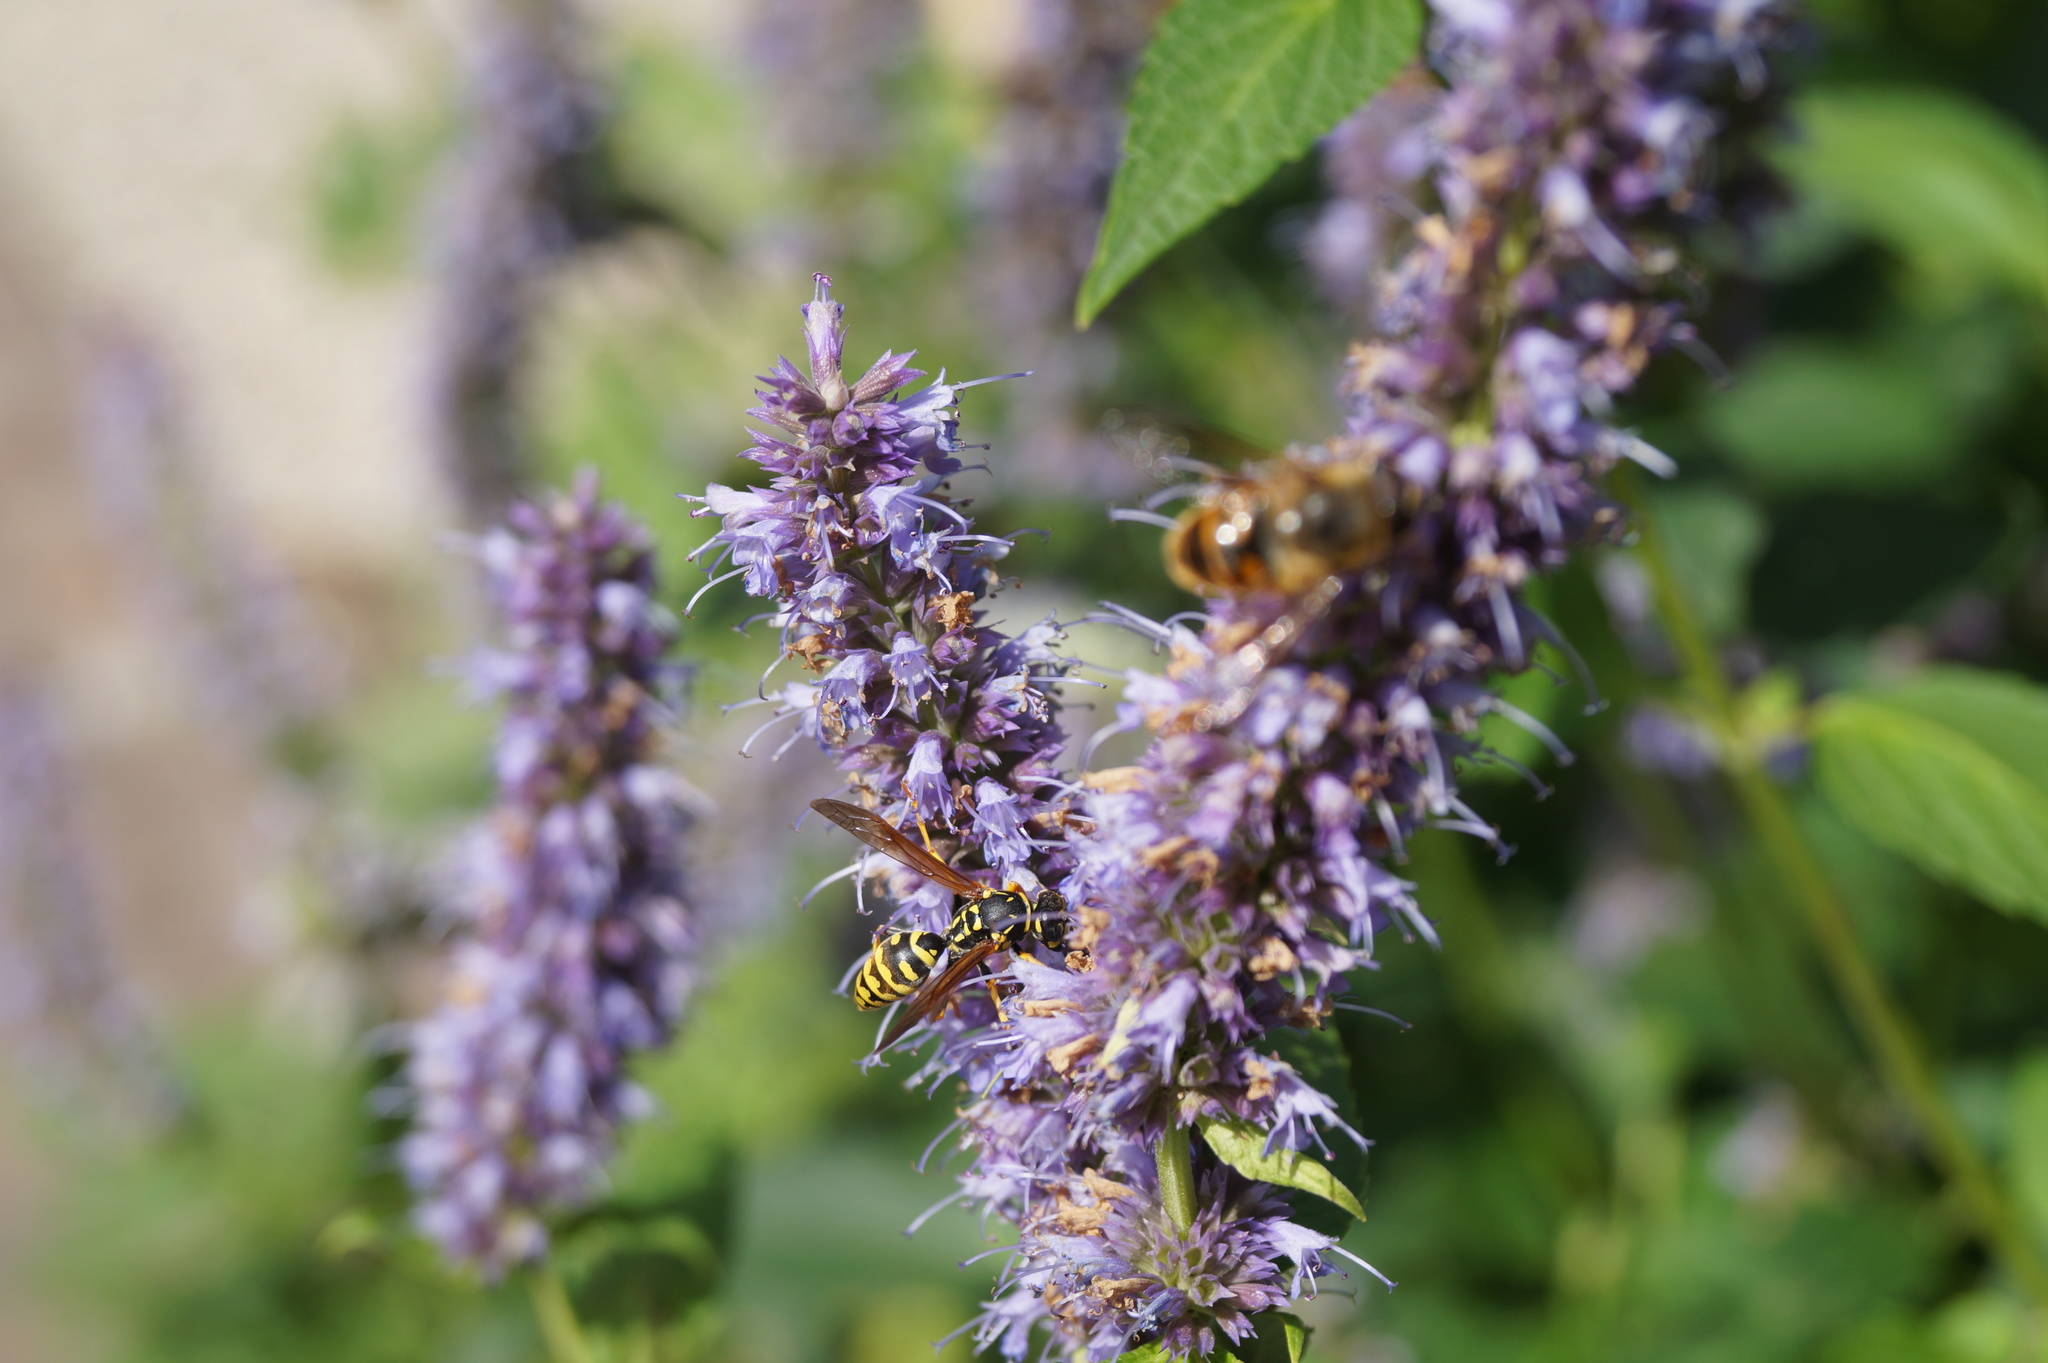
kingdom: Animalia
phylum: Arthropoda
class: Insecta
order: Hymenoptera
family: Eumenidae
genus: Polistes
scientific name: Polistes dominula
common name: Paper wasp
